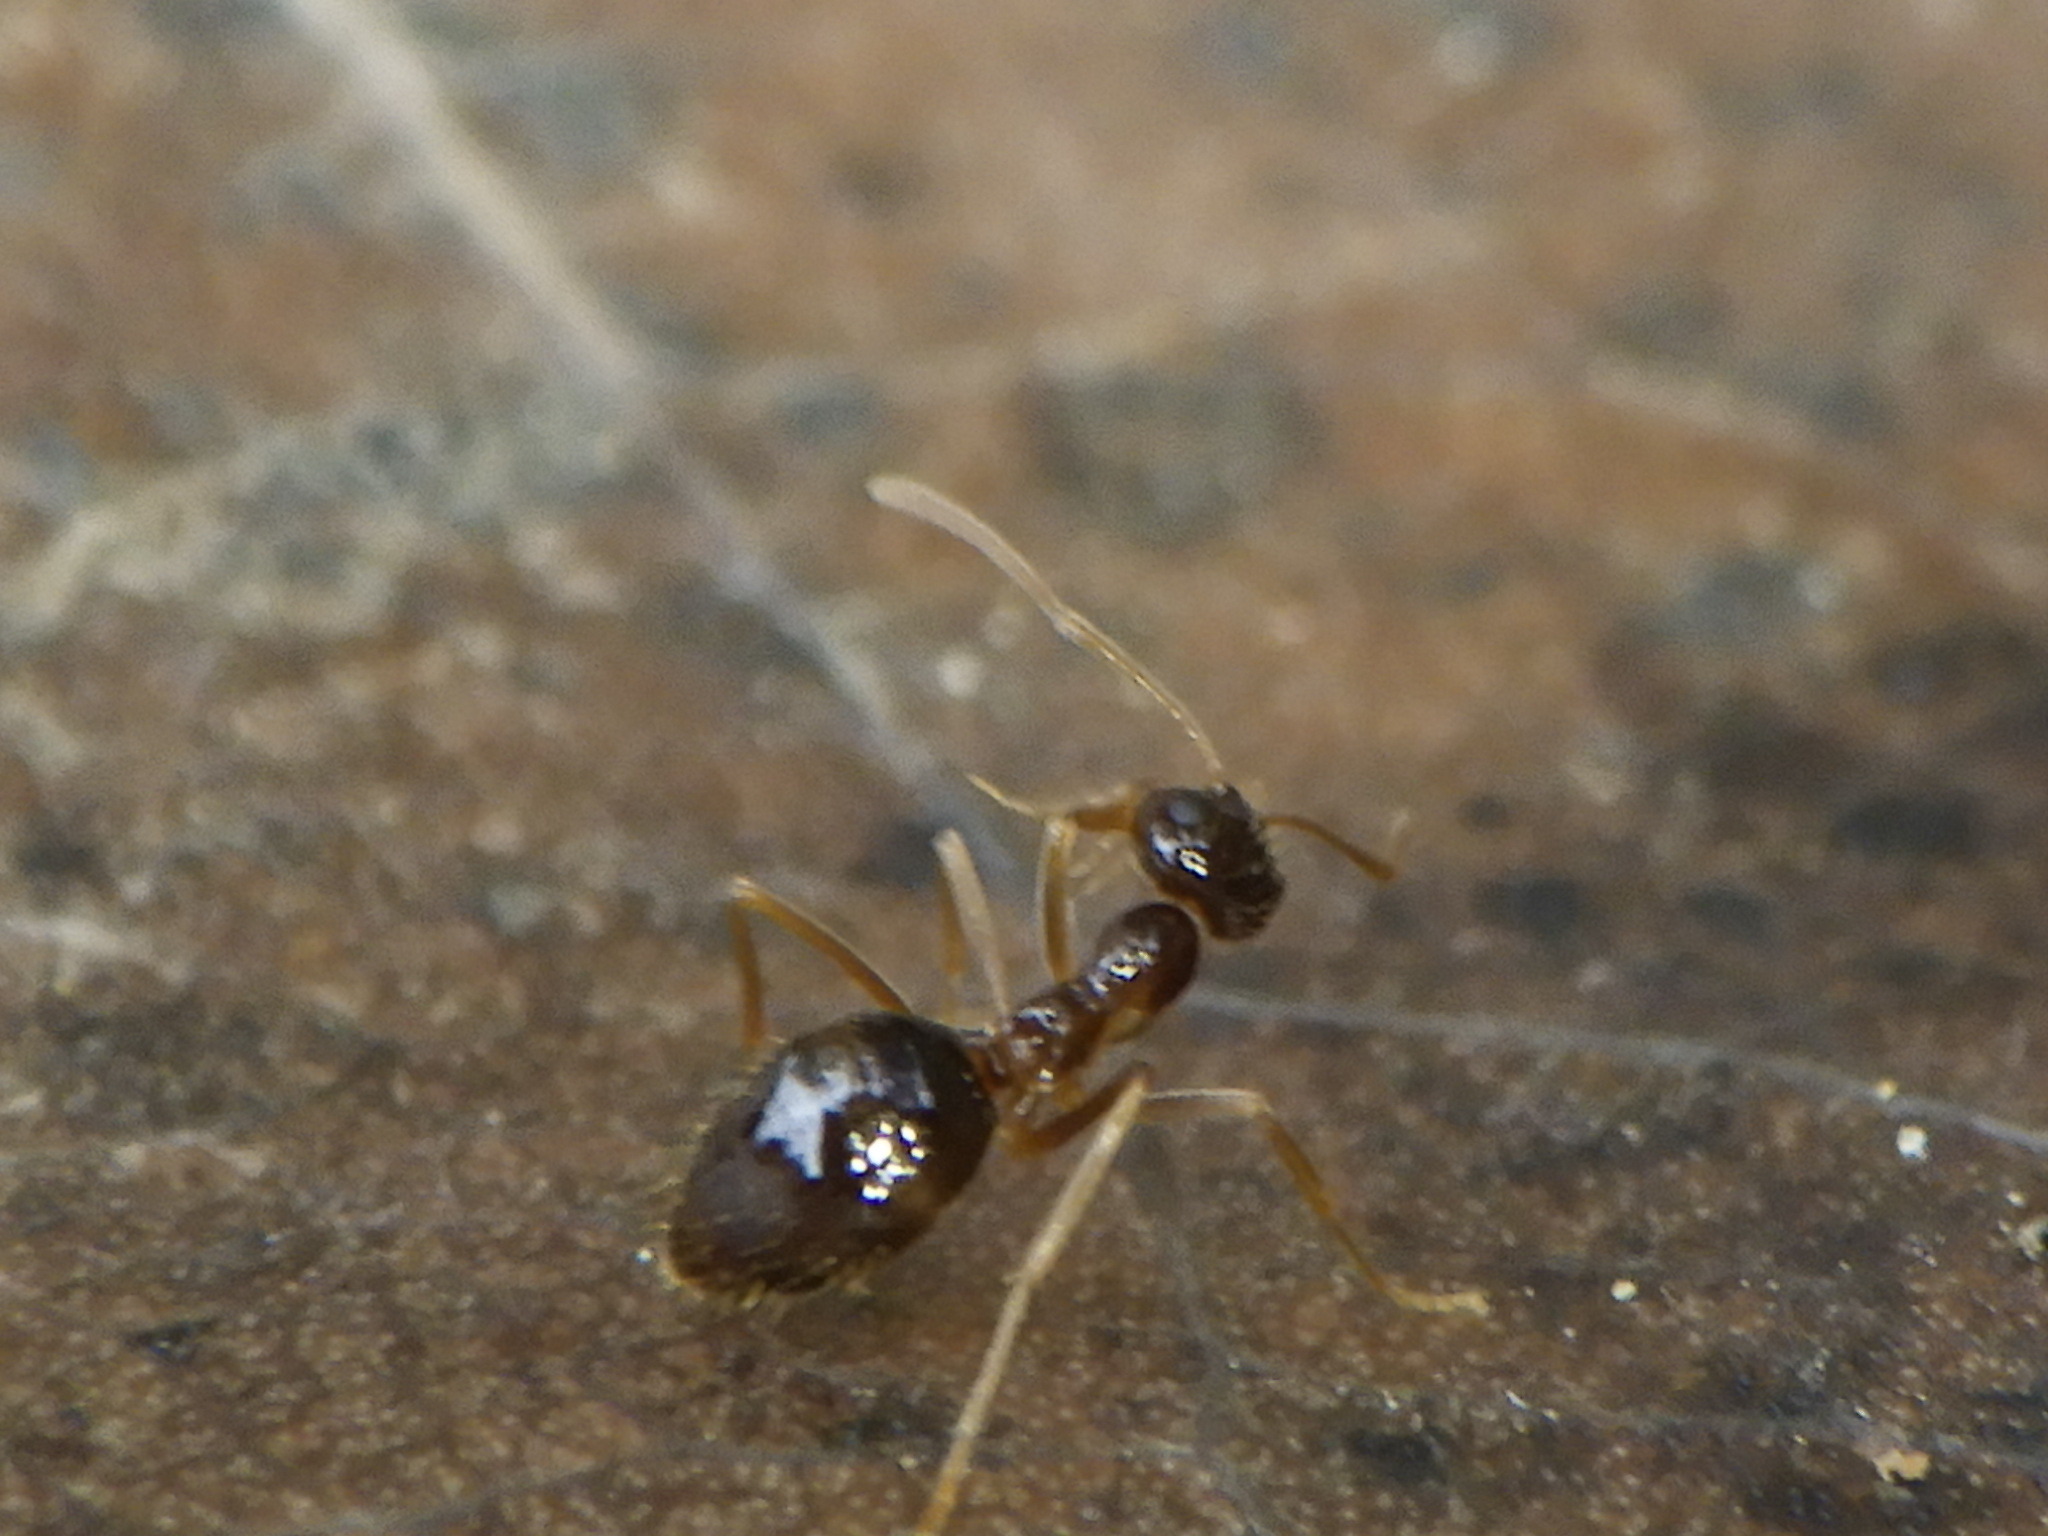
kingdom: Animalia
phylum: Arthropoda
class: Insecta
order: Hymenoptera
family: Formicidae
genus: Prenolepis
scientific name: Prenolepis imparis
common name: Small honey ant
